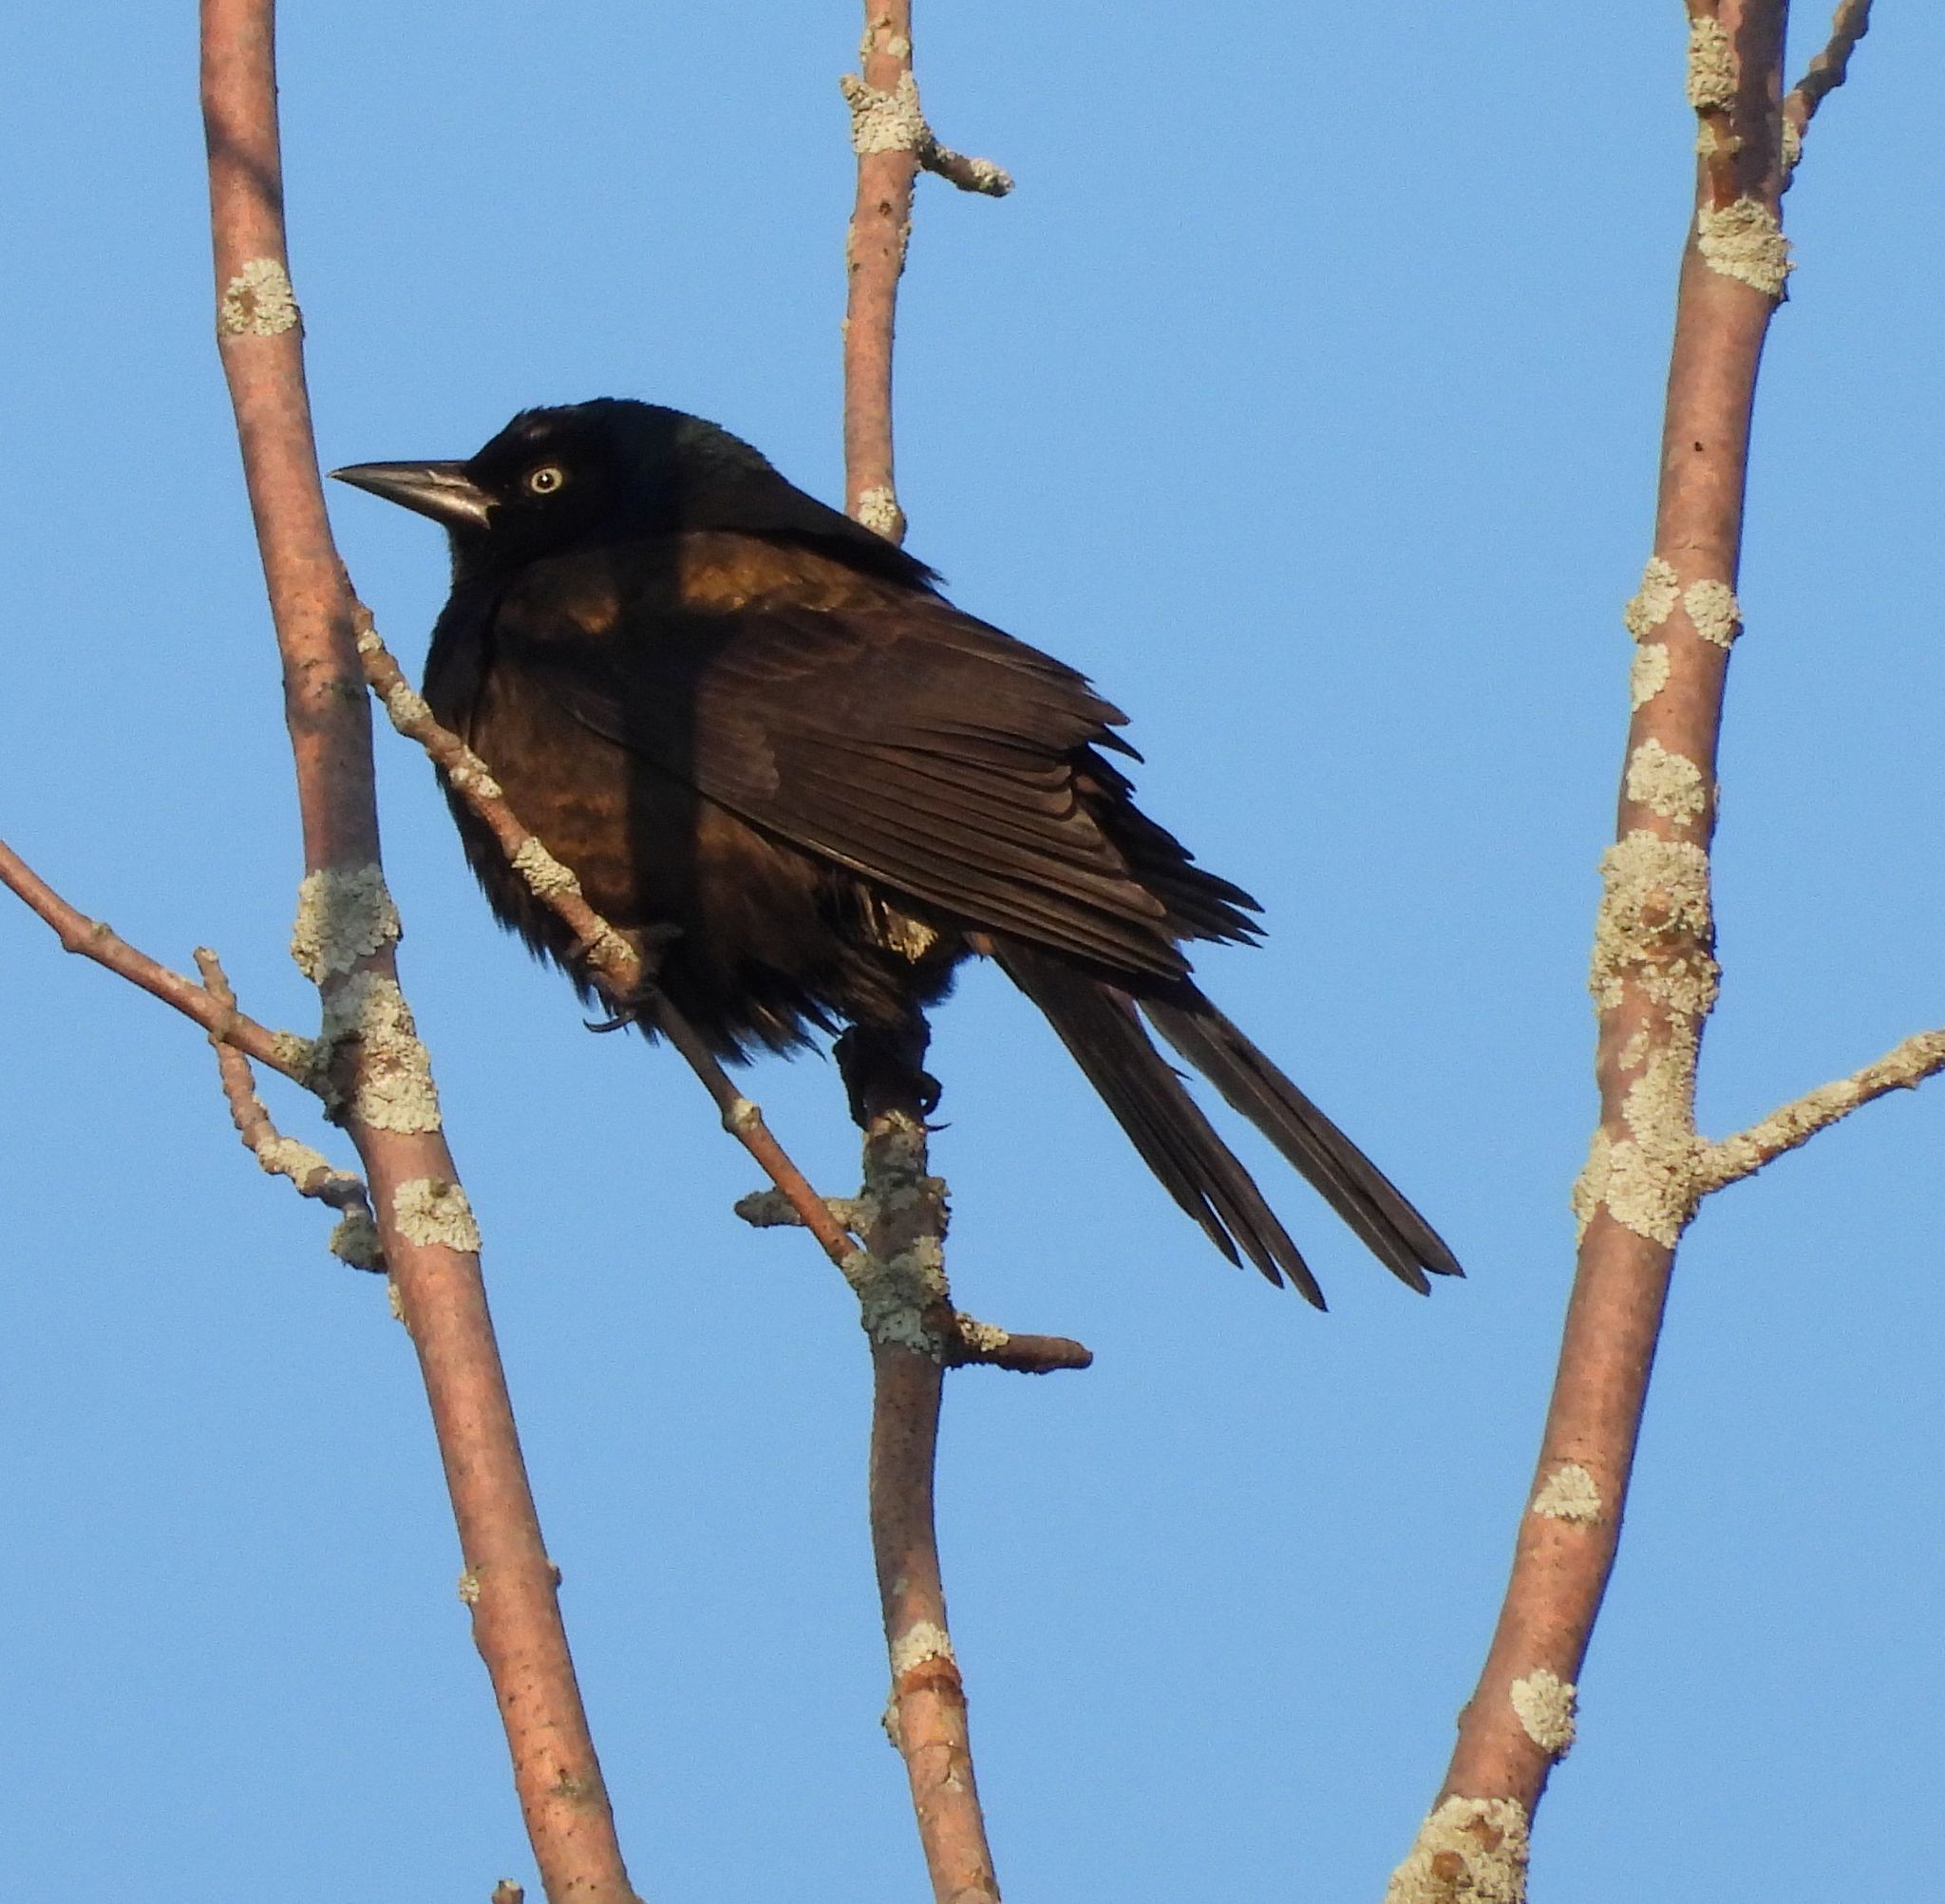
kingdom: Animalia
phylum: Chordata
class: Aves
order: Passeriformes
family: Icteridae
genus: Quiscalus
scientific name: Quiscalus quiscula
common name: Common grackle
